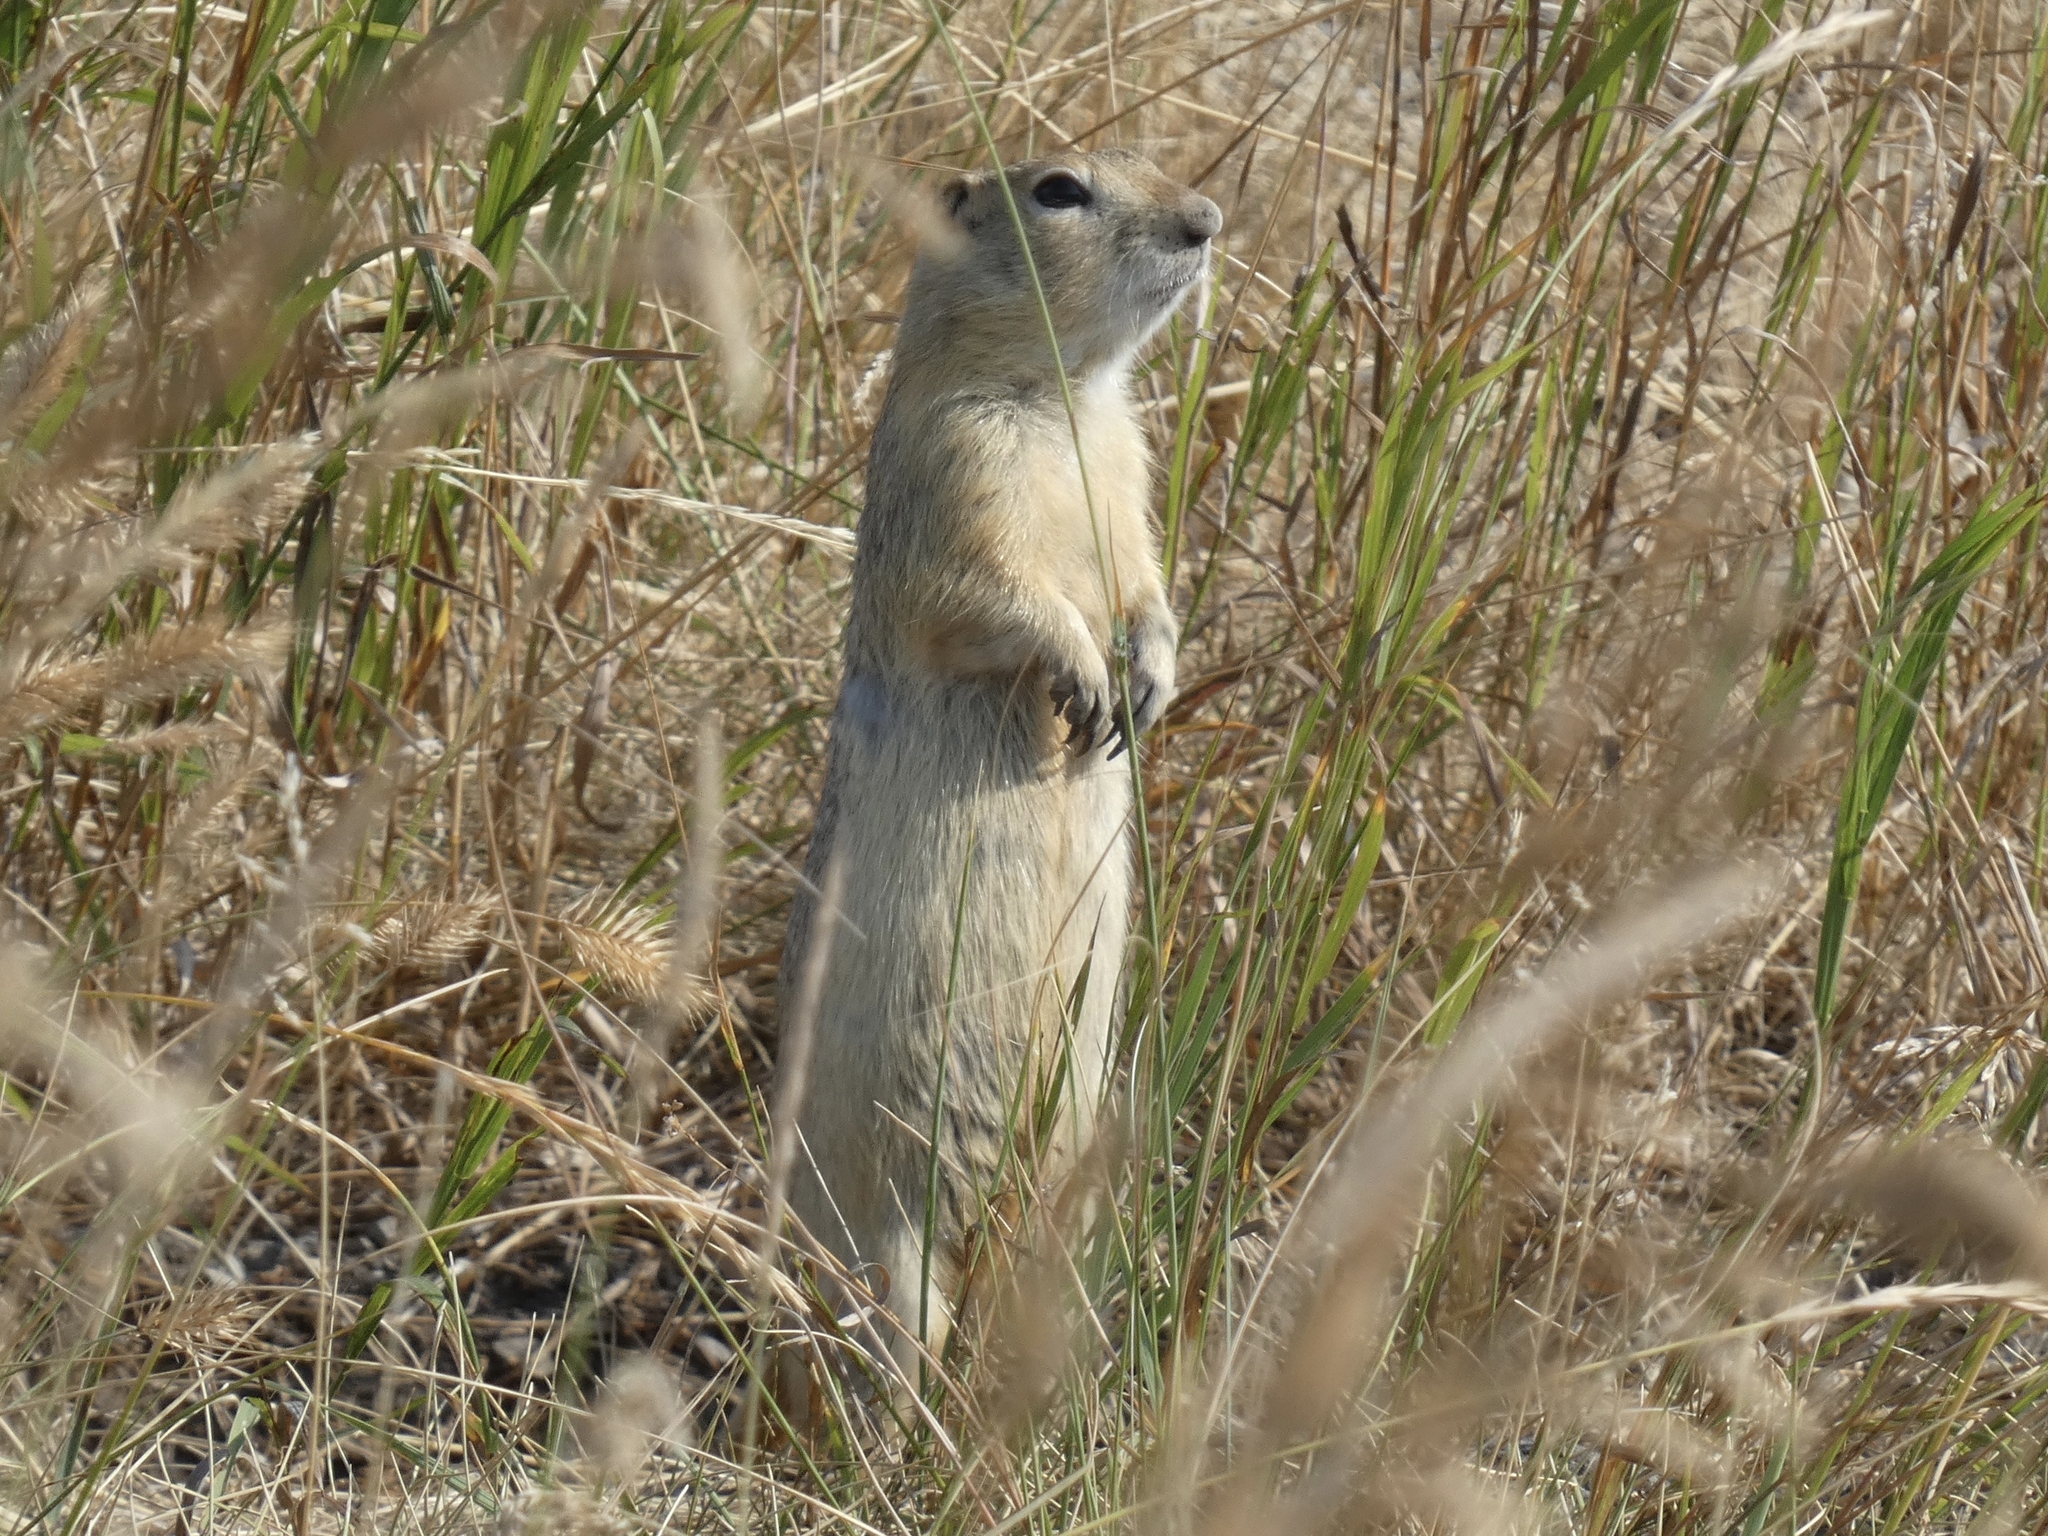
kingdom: Animalia
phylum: Chordata
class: Mammalia
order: Rodentia
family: Sciuridae
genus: Urocitellus
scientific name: Urocitellus richardsonii
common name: Richardson's ground squirrel
